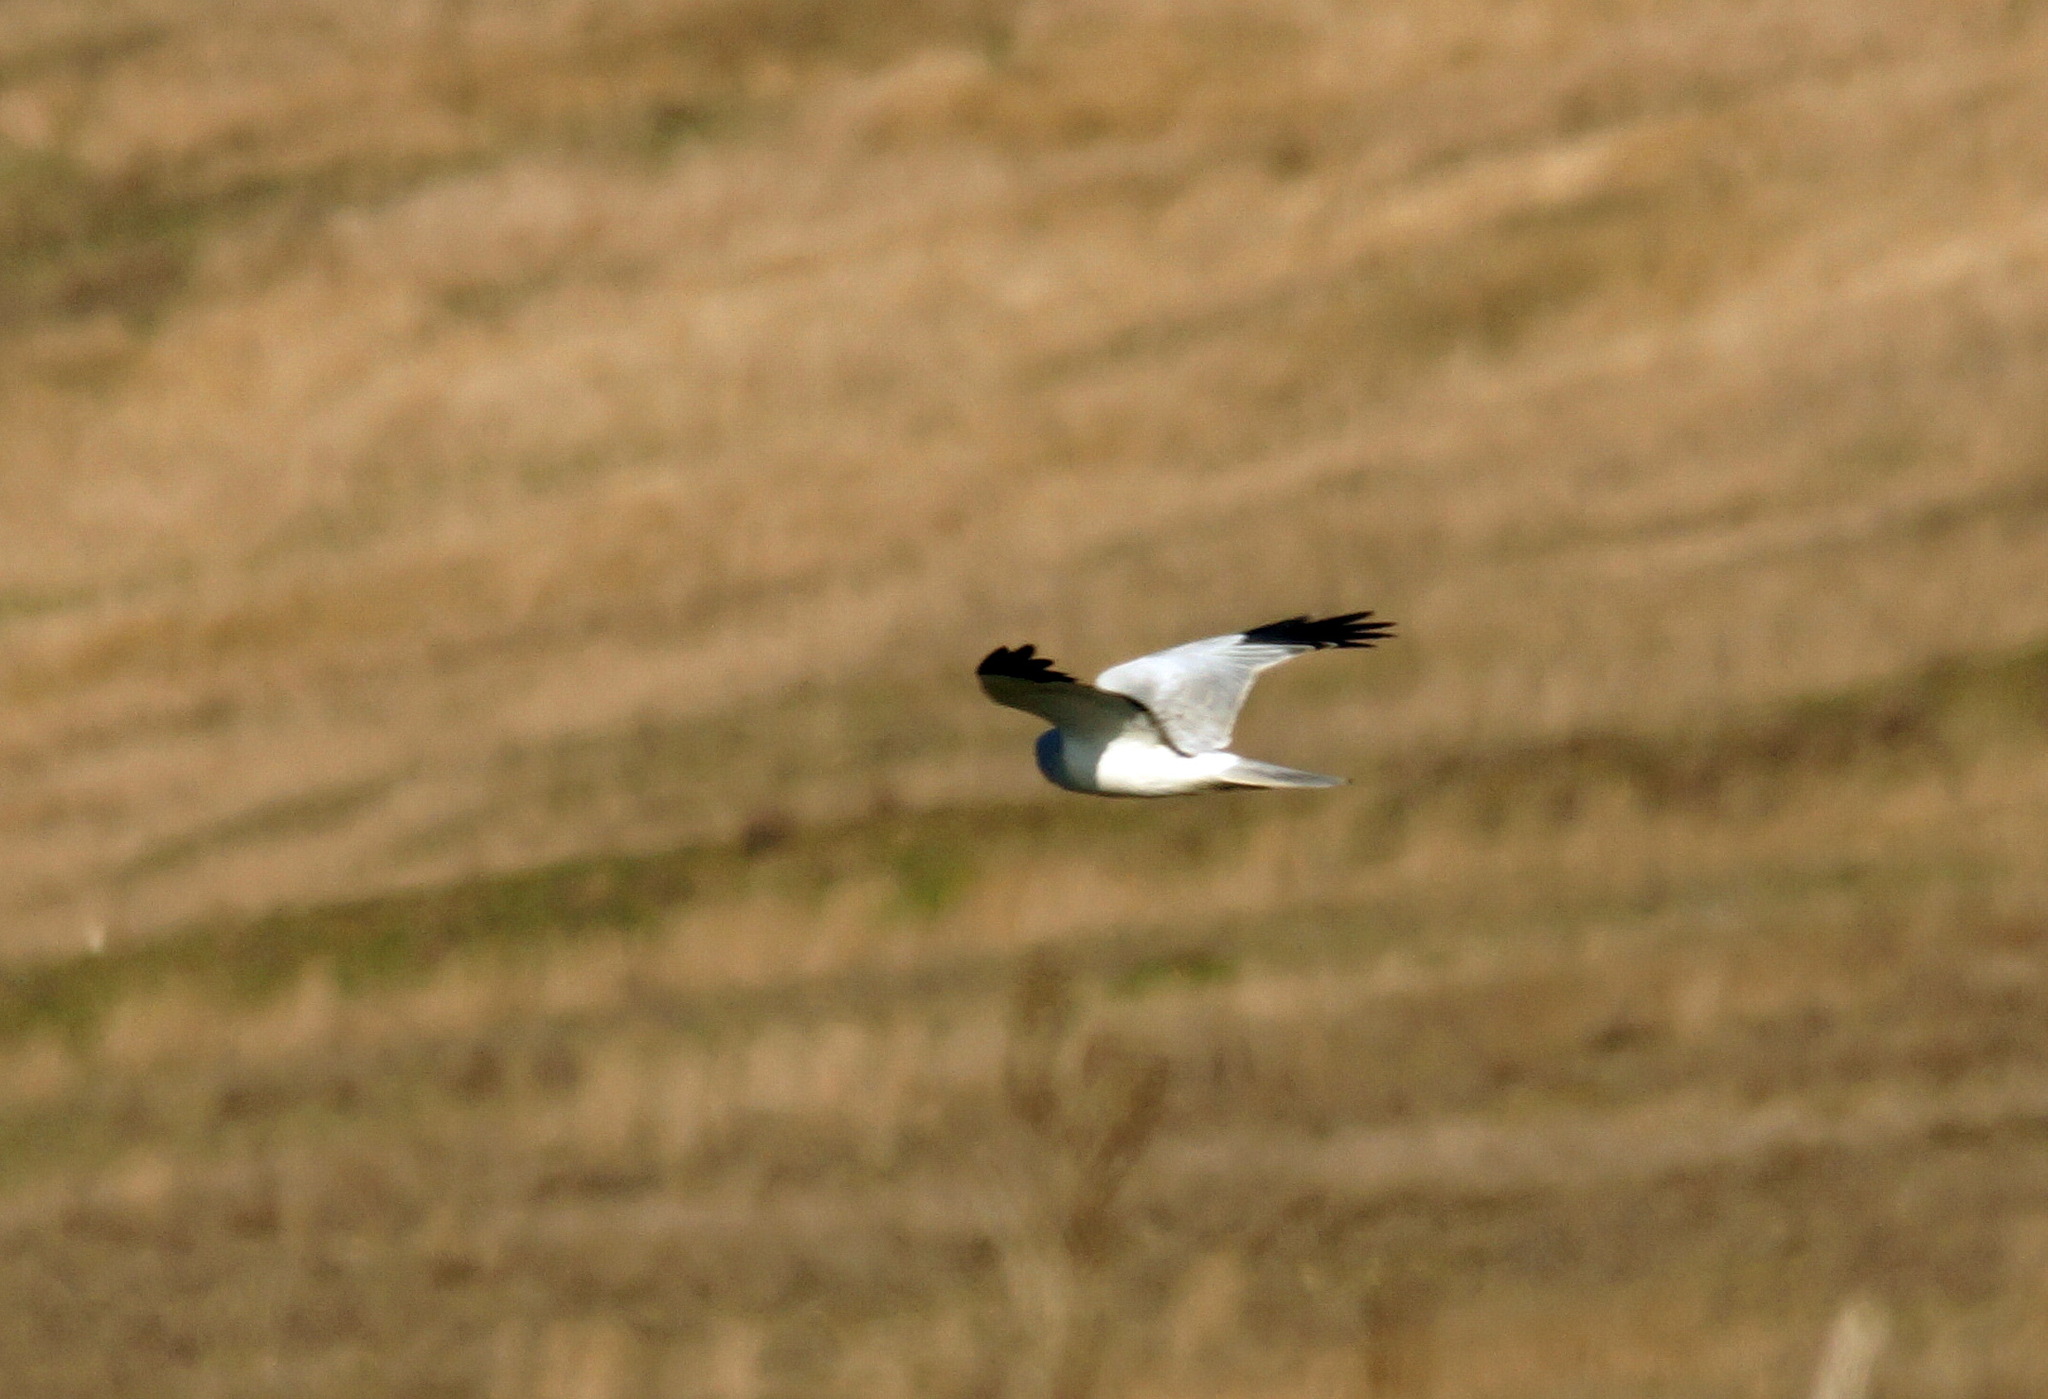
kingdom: Animalia
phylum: Chordata
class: Aves
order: Accipitriformes
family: Accipitridae
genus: Circus
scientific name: Circus cyaneus
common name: Hen harrier
